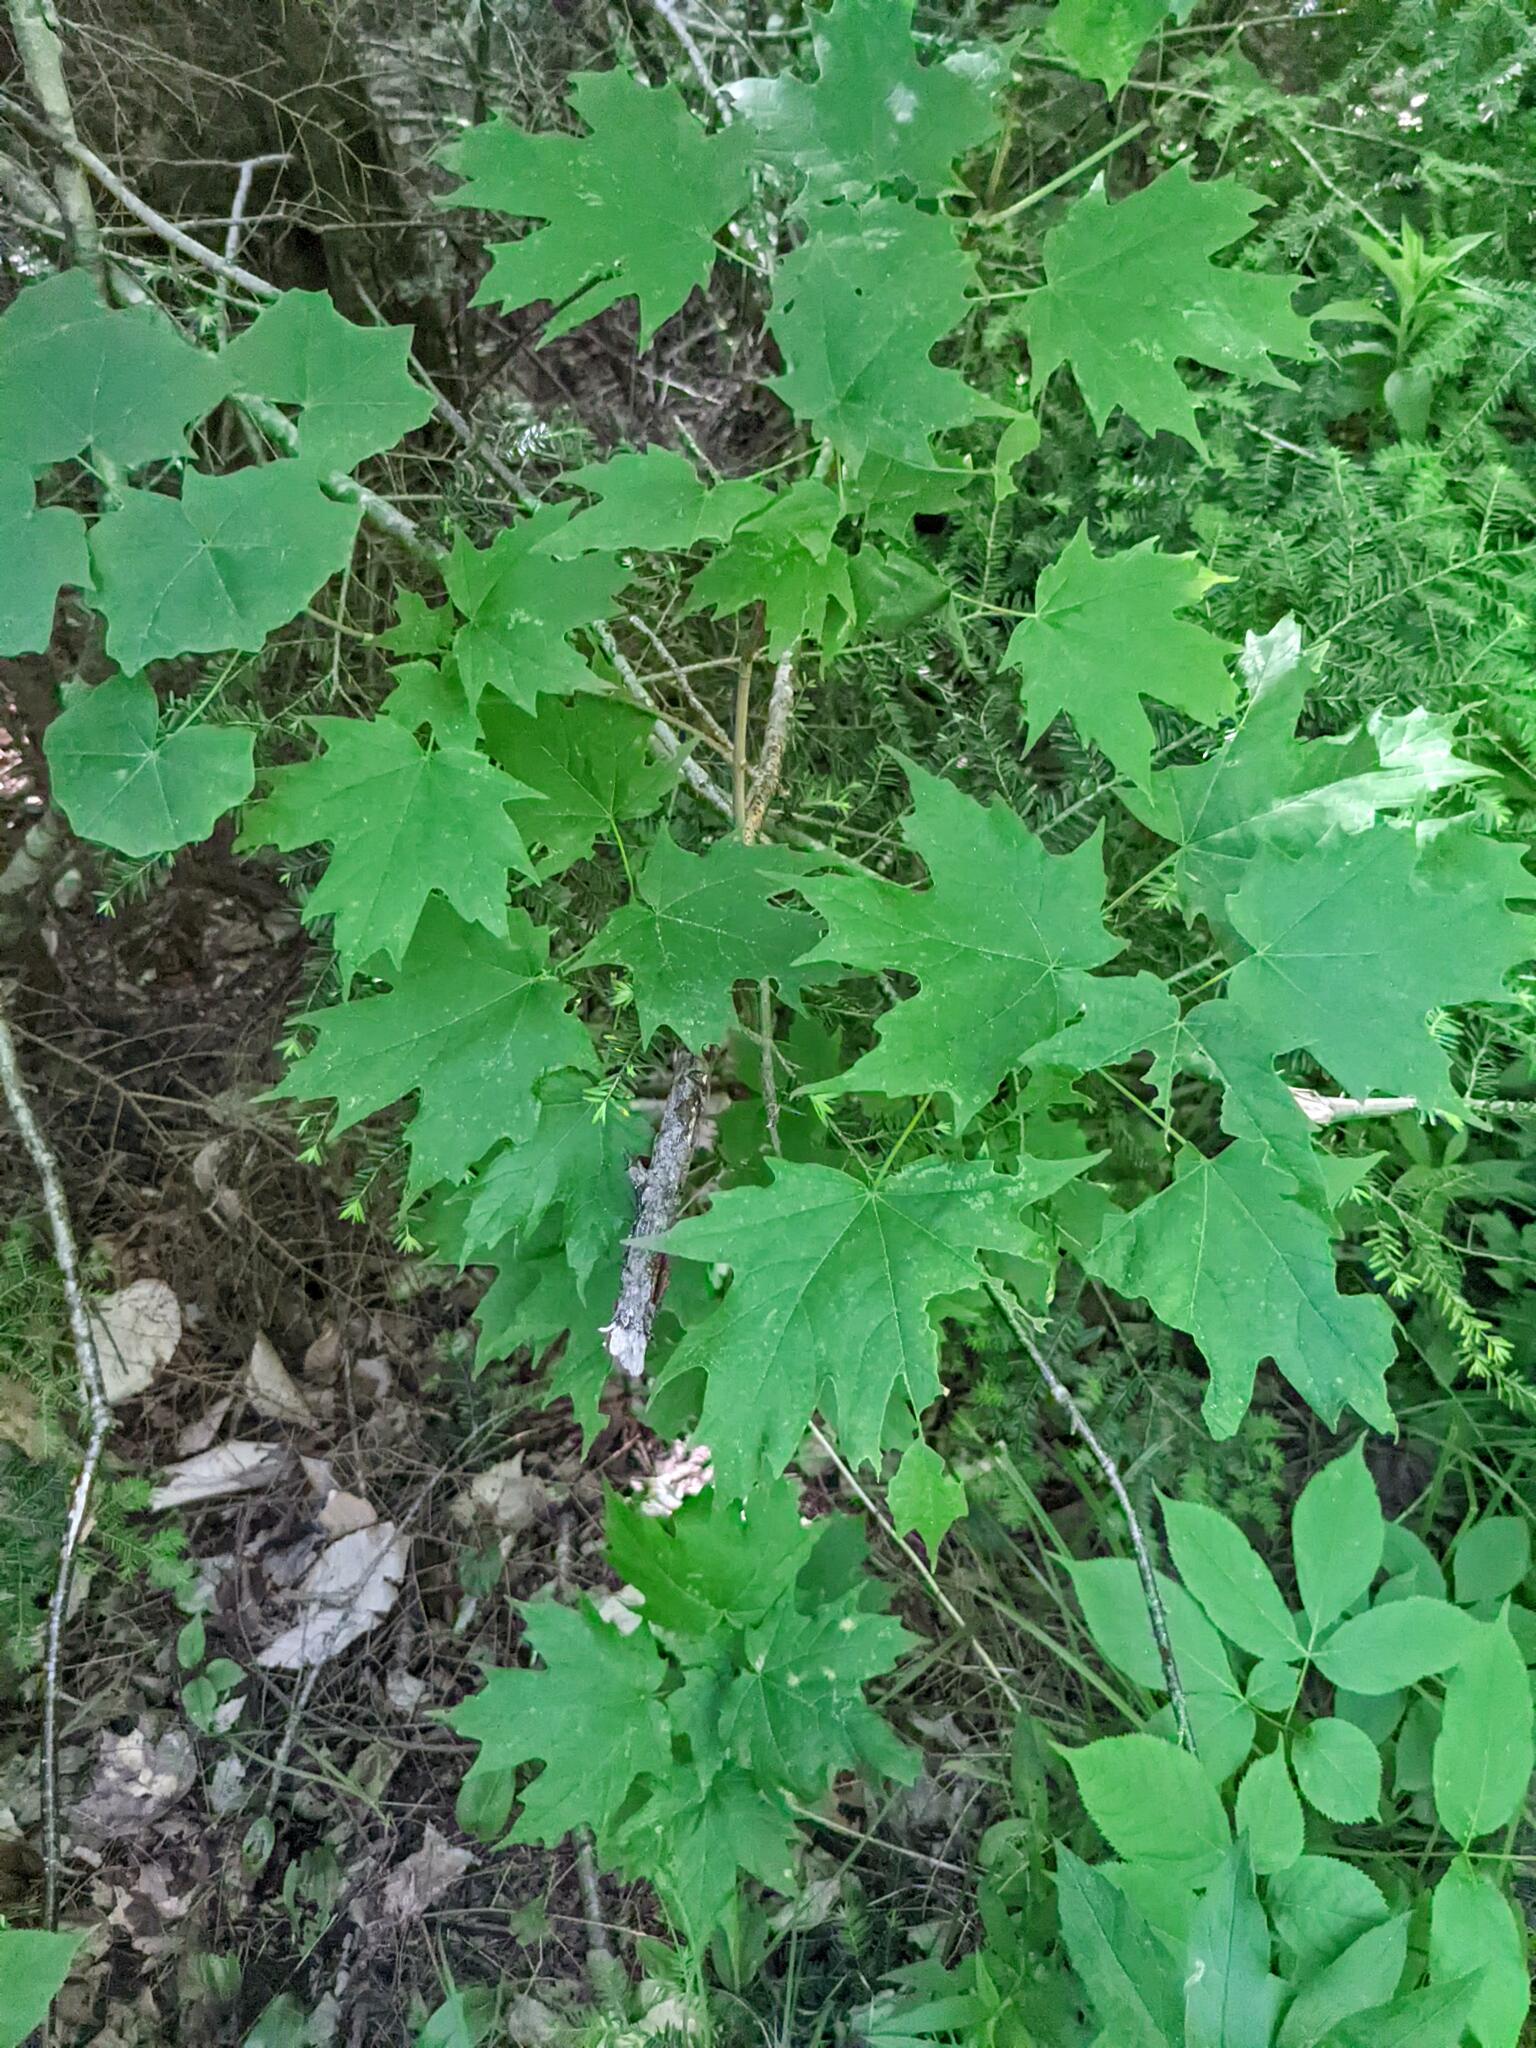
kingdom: Plantae
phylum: Tracheophyta
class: Magnoliopsida
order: Sapindales
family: Sapindaceae
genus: Acer
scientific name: Acer saccharum
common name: Sugar maple
